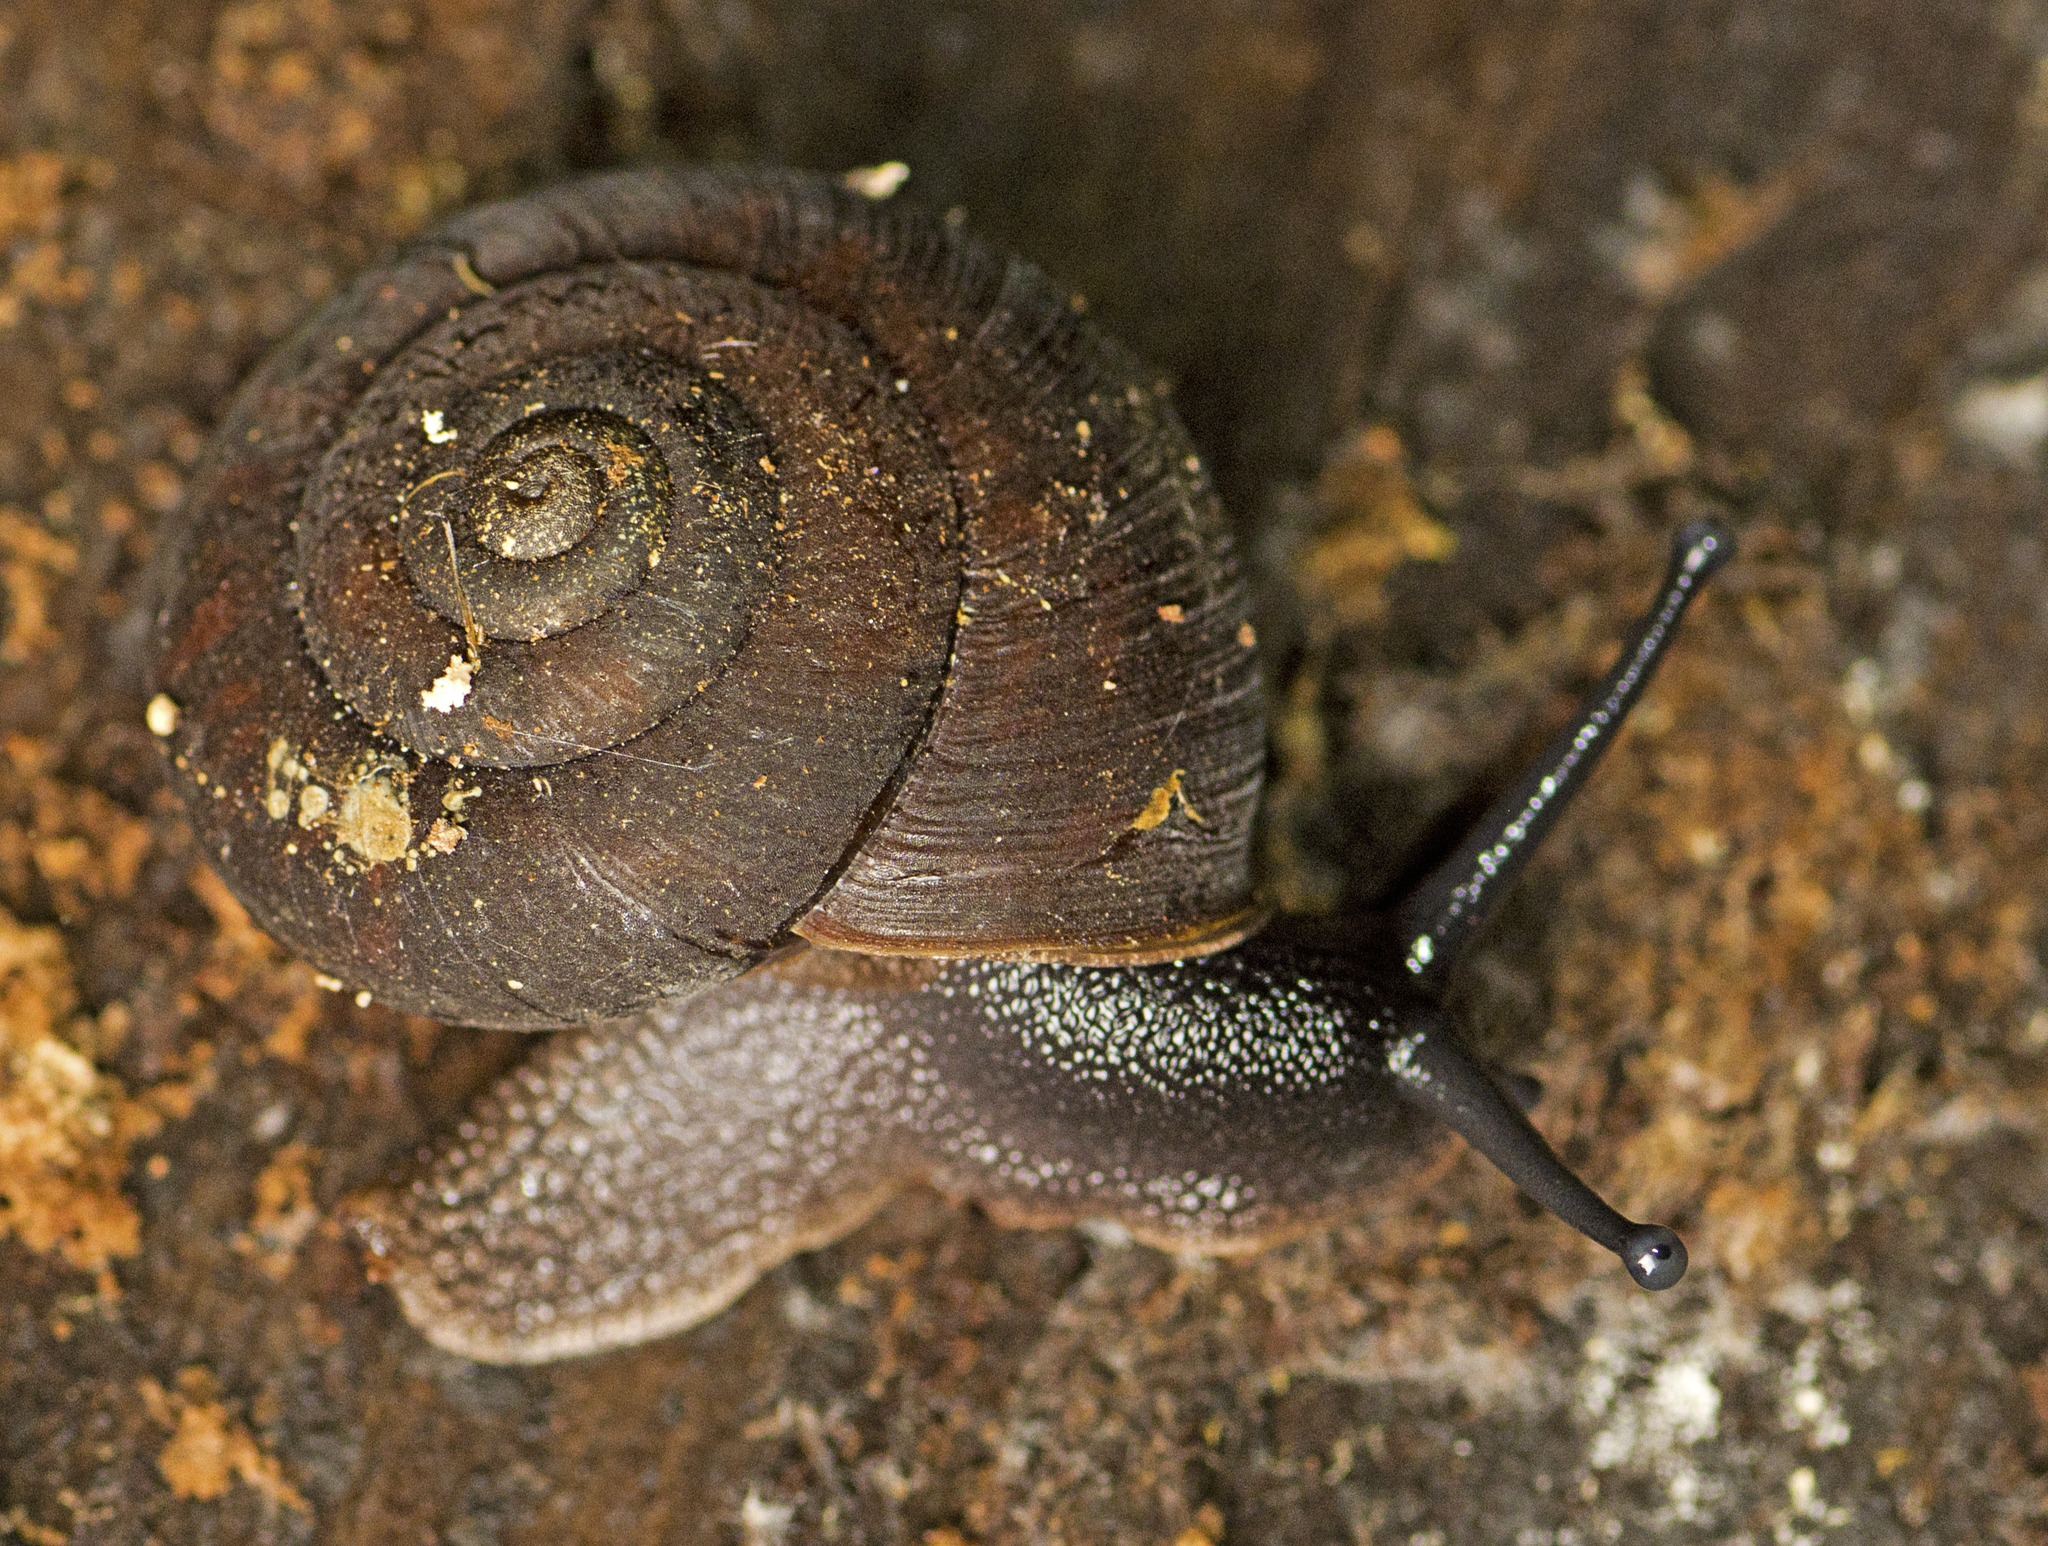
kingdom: Animalia
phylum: Mollusca
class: Gastropoda
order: Stylommatophora
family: Camaenidae
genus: Ramogenia
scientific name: Ramogenia challengeri
